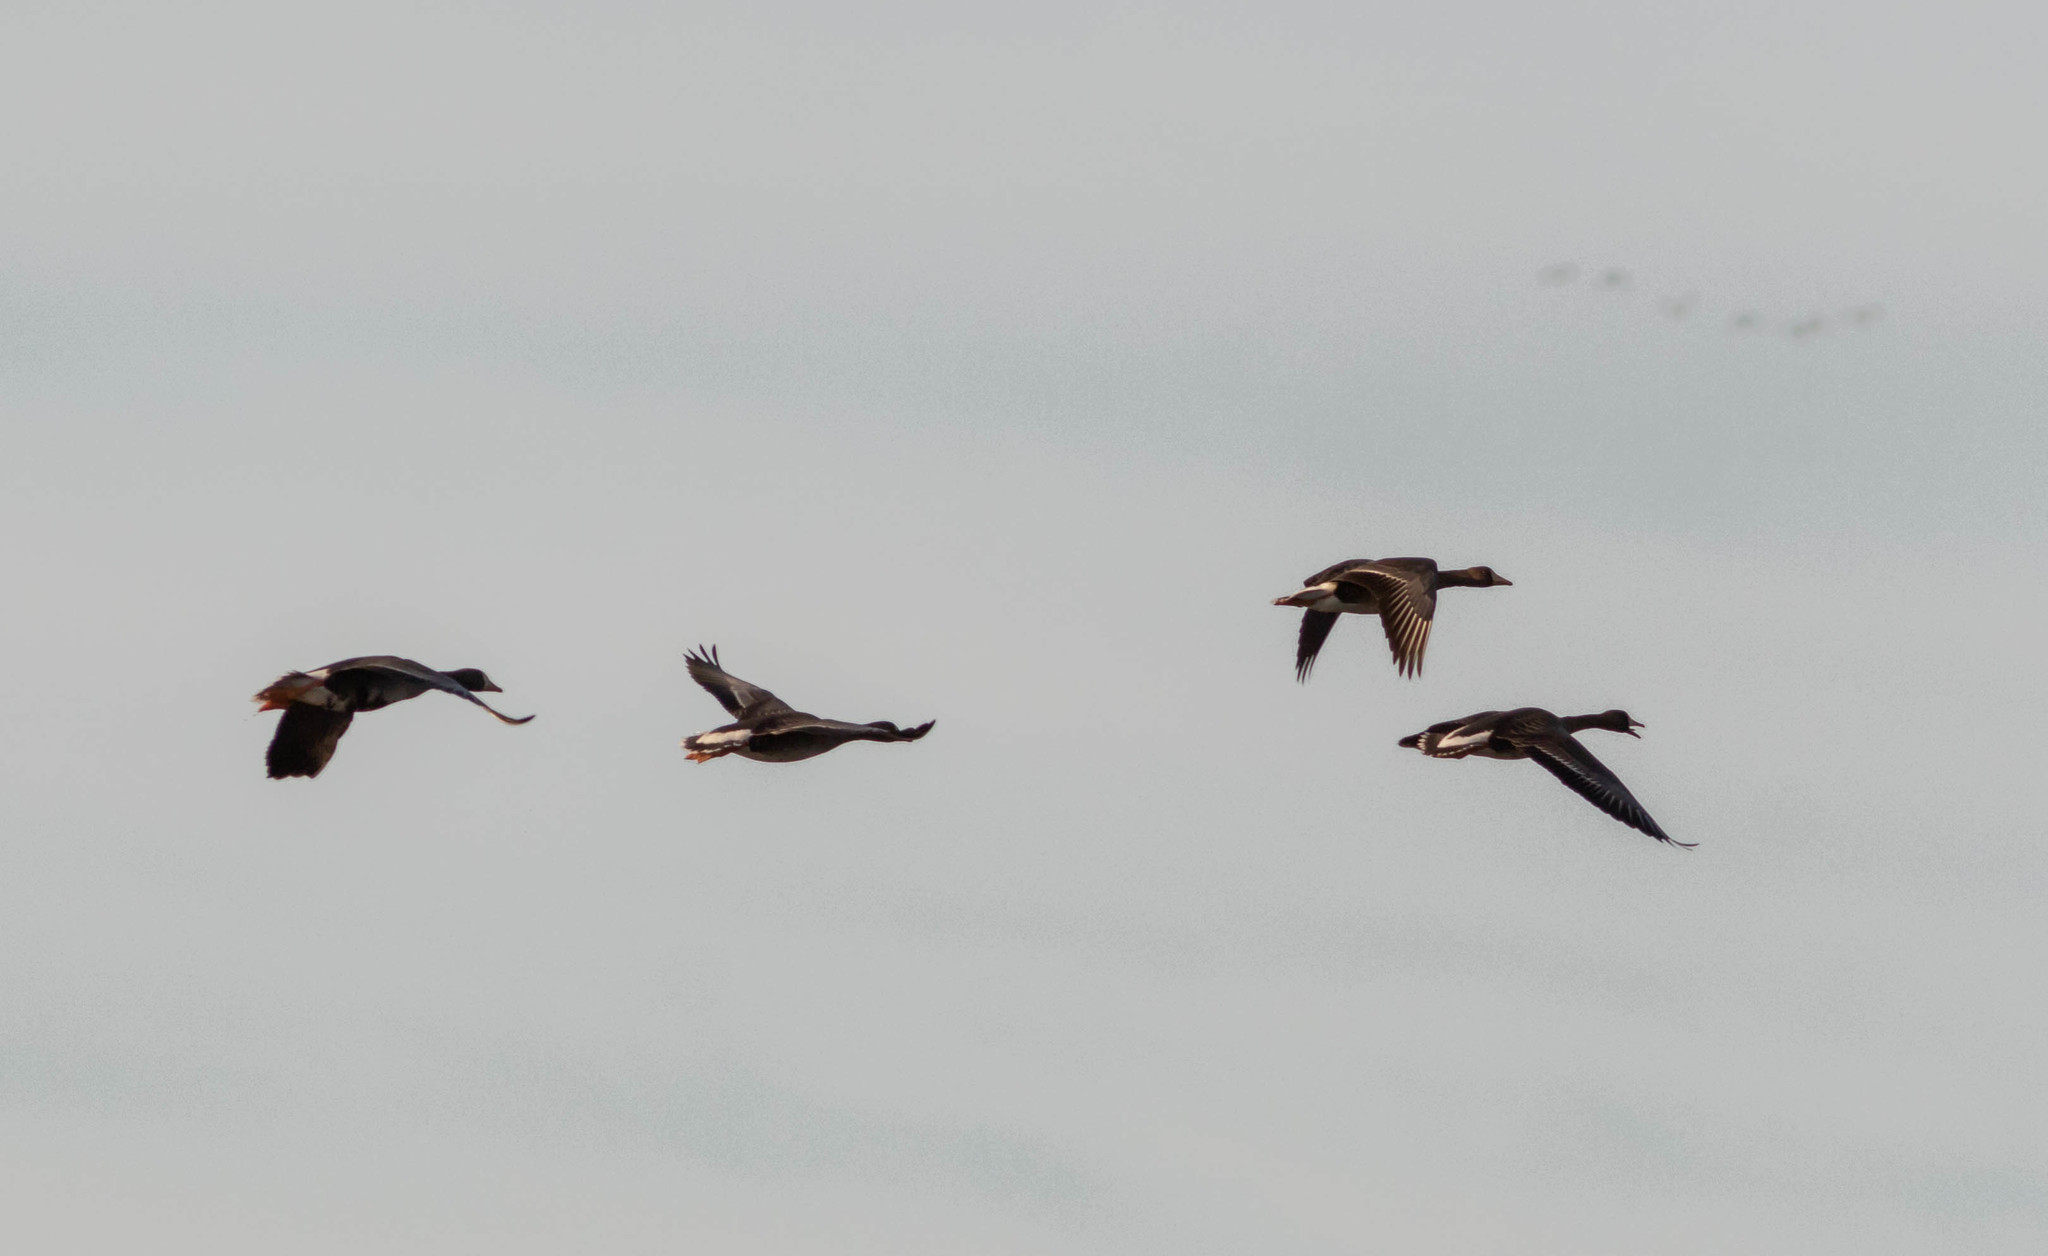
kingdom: Animalia
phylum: Chordata
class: Aves
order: Anseriformes
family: Anatidae
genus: Anser
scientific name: Anser albifrons
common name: Greater white-fronted goose
